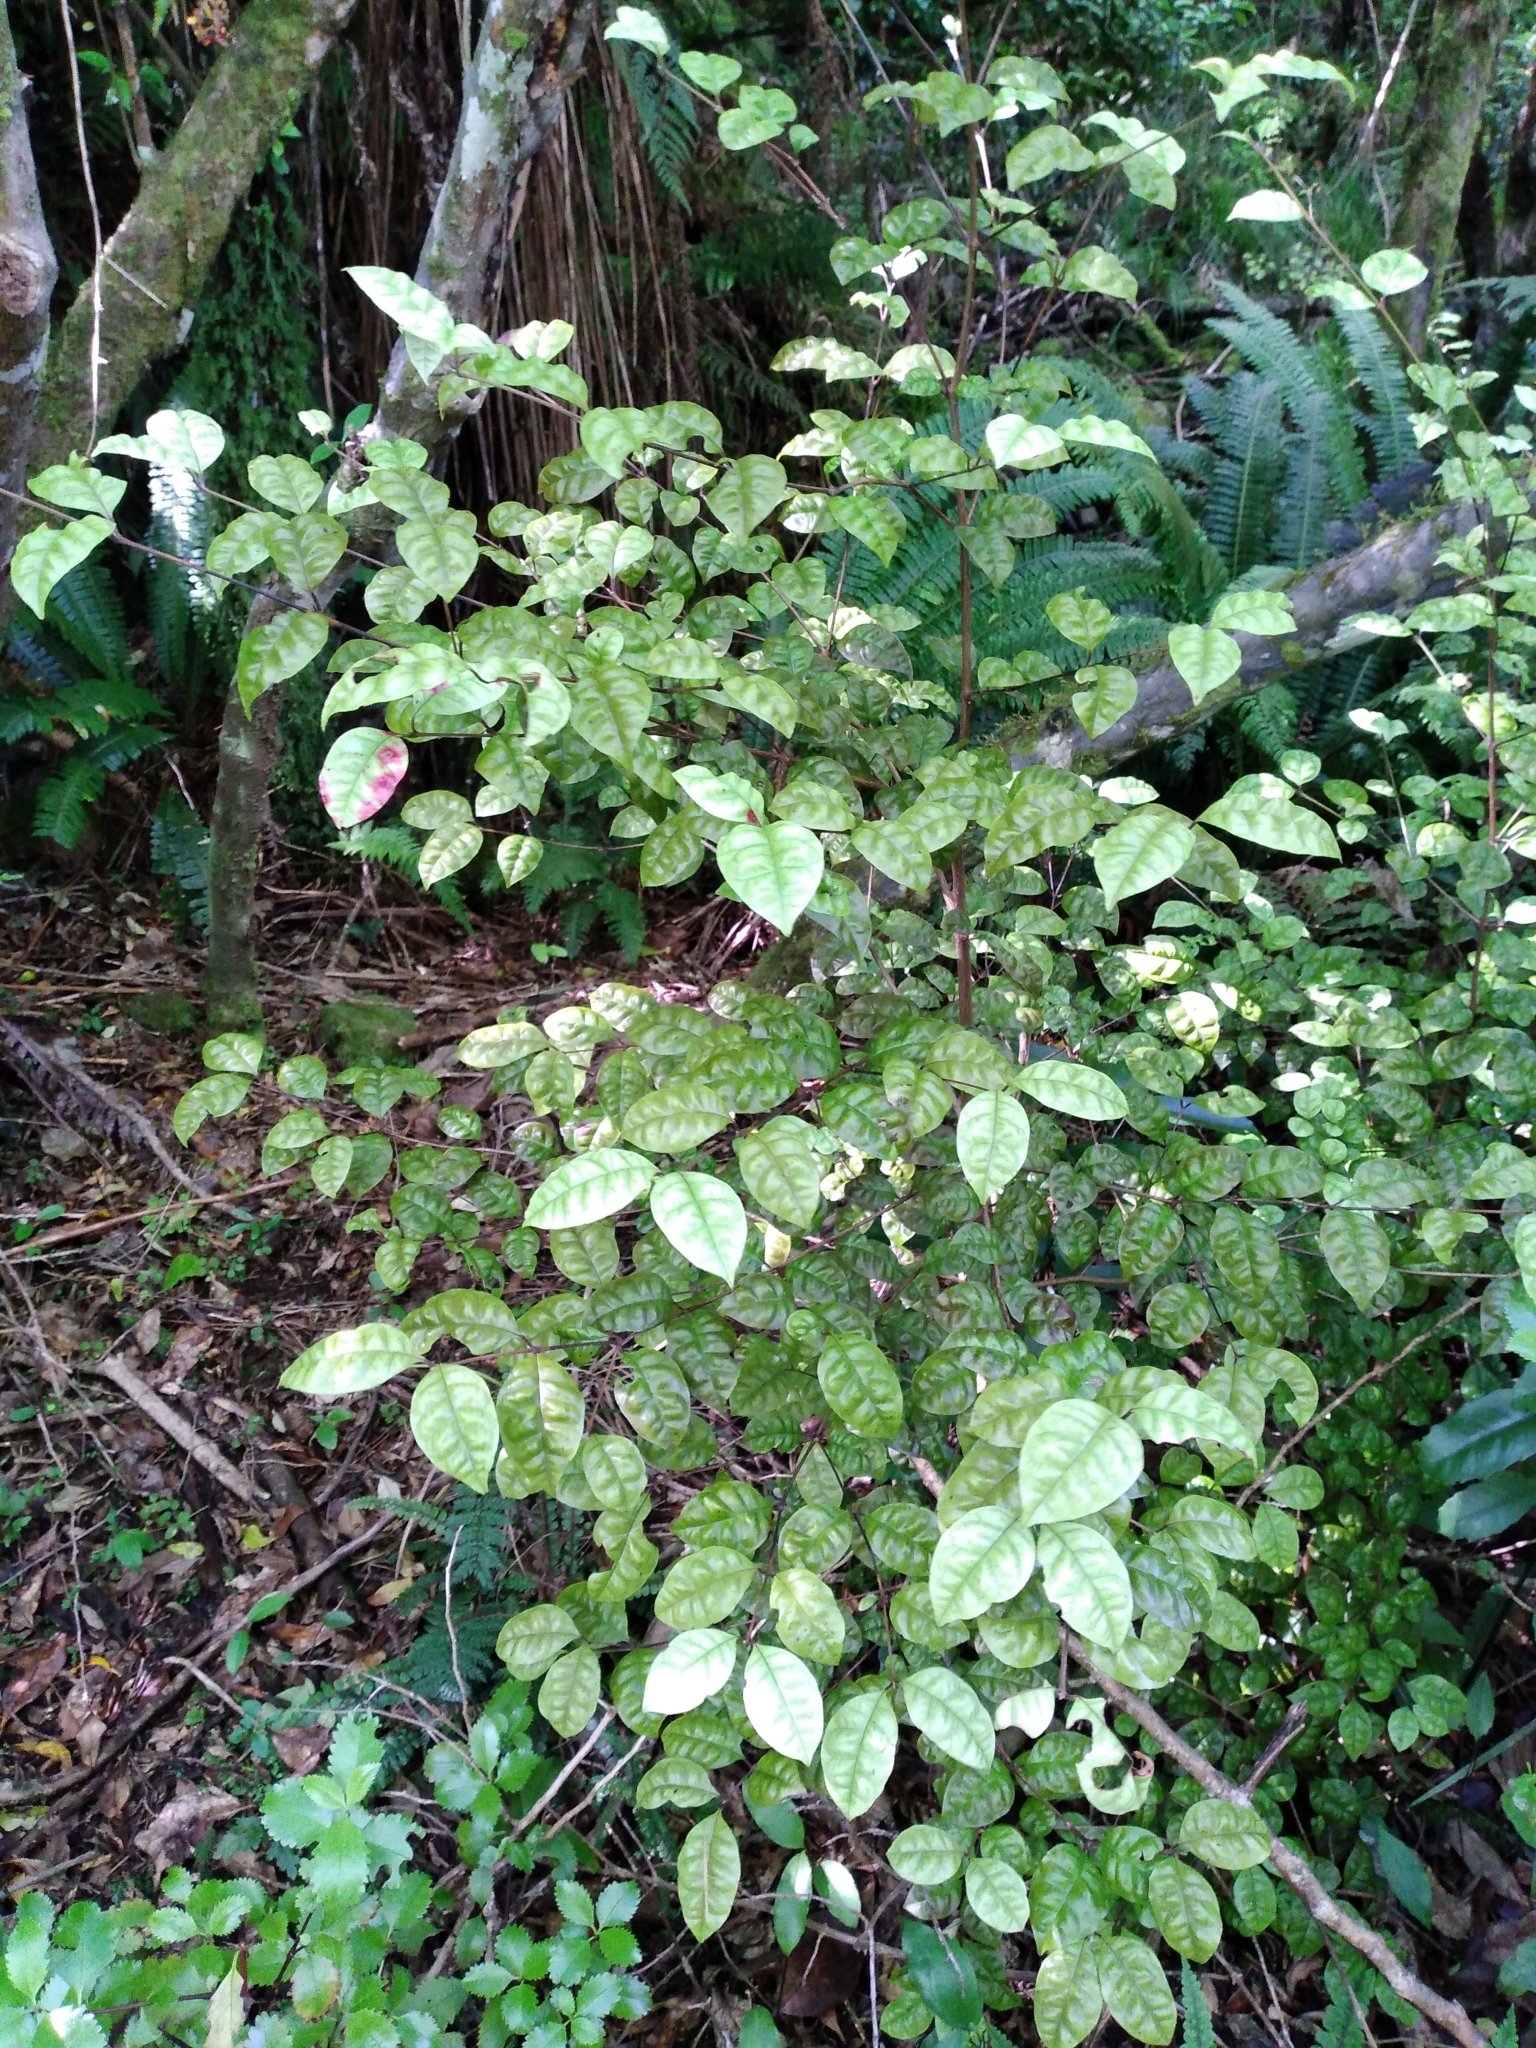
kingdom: Plantae
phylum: Tracheophyta
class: Magnoliopsida
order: Myrtales
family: Myrtaceae
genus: Lophomyrtus
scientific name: Lophomyrtus bullata
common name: Rama rama
